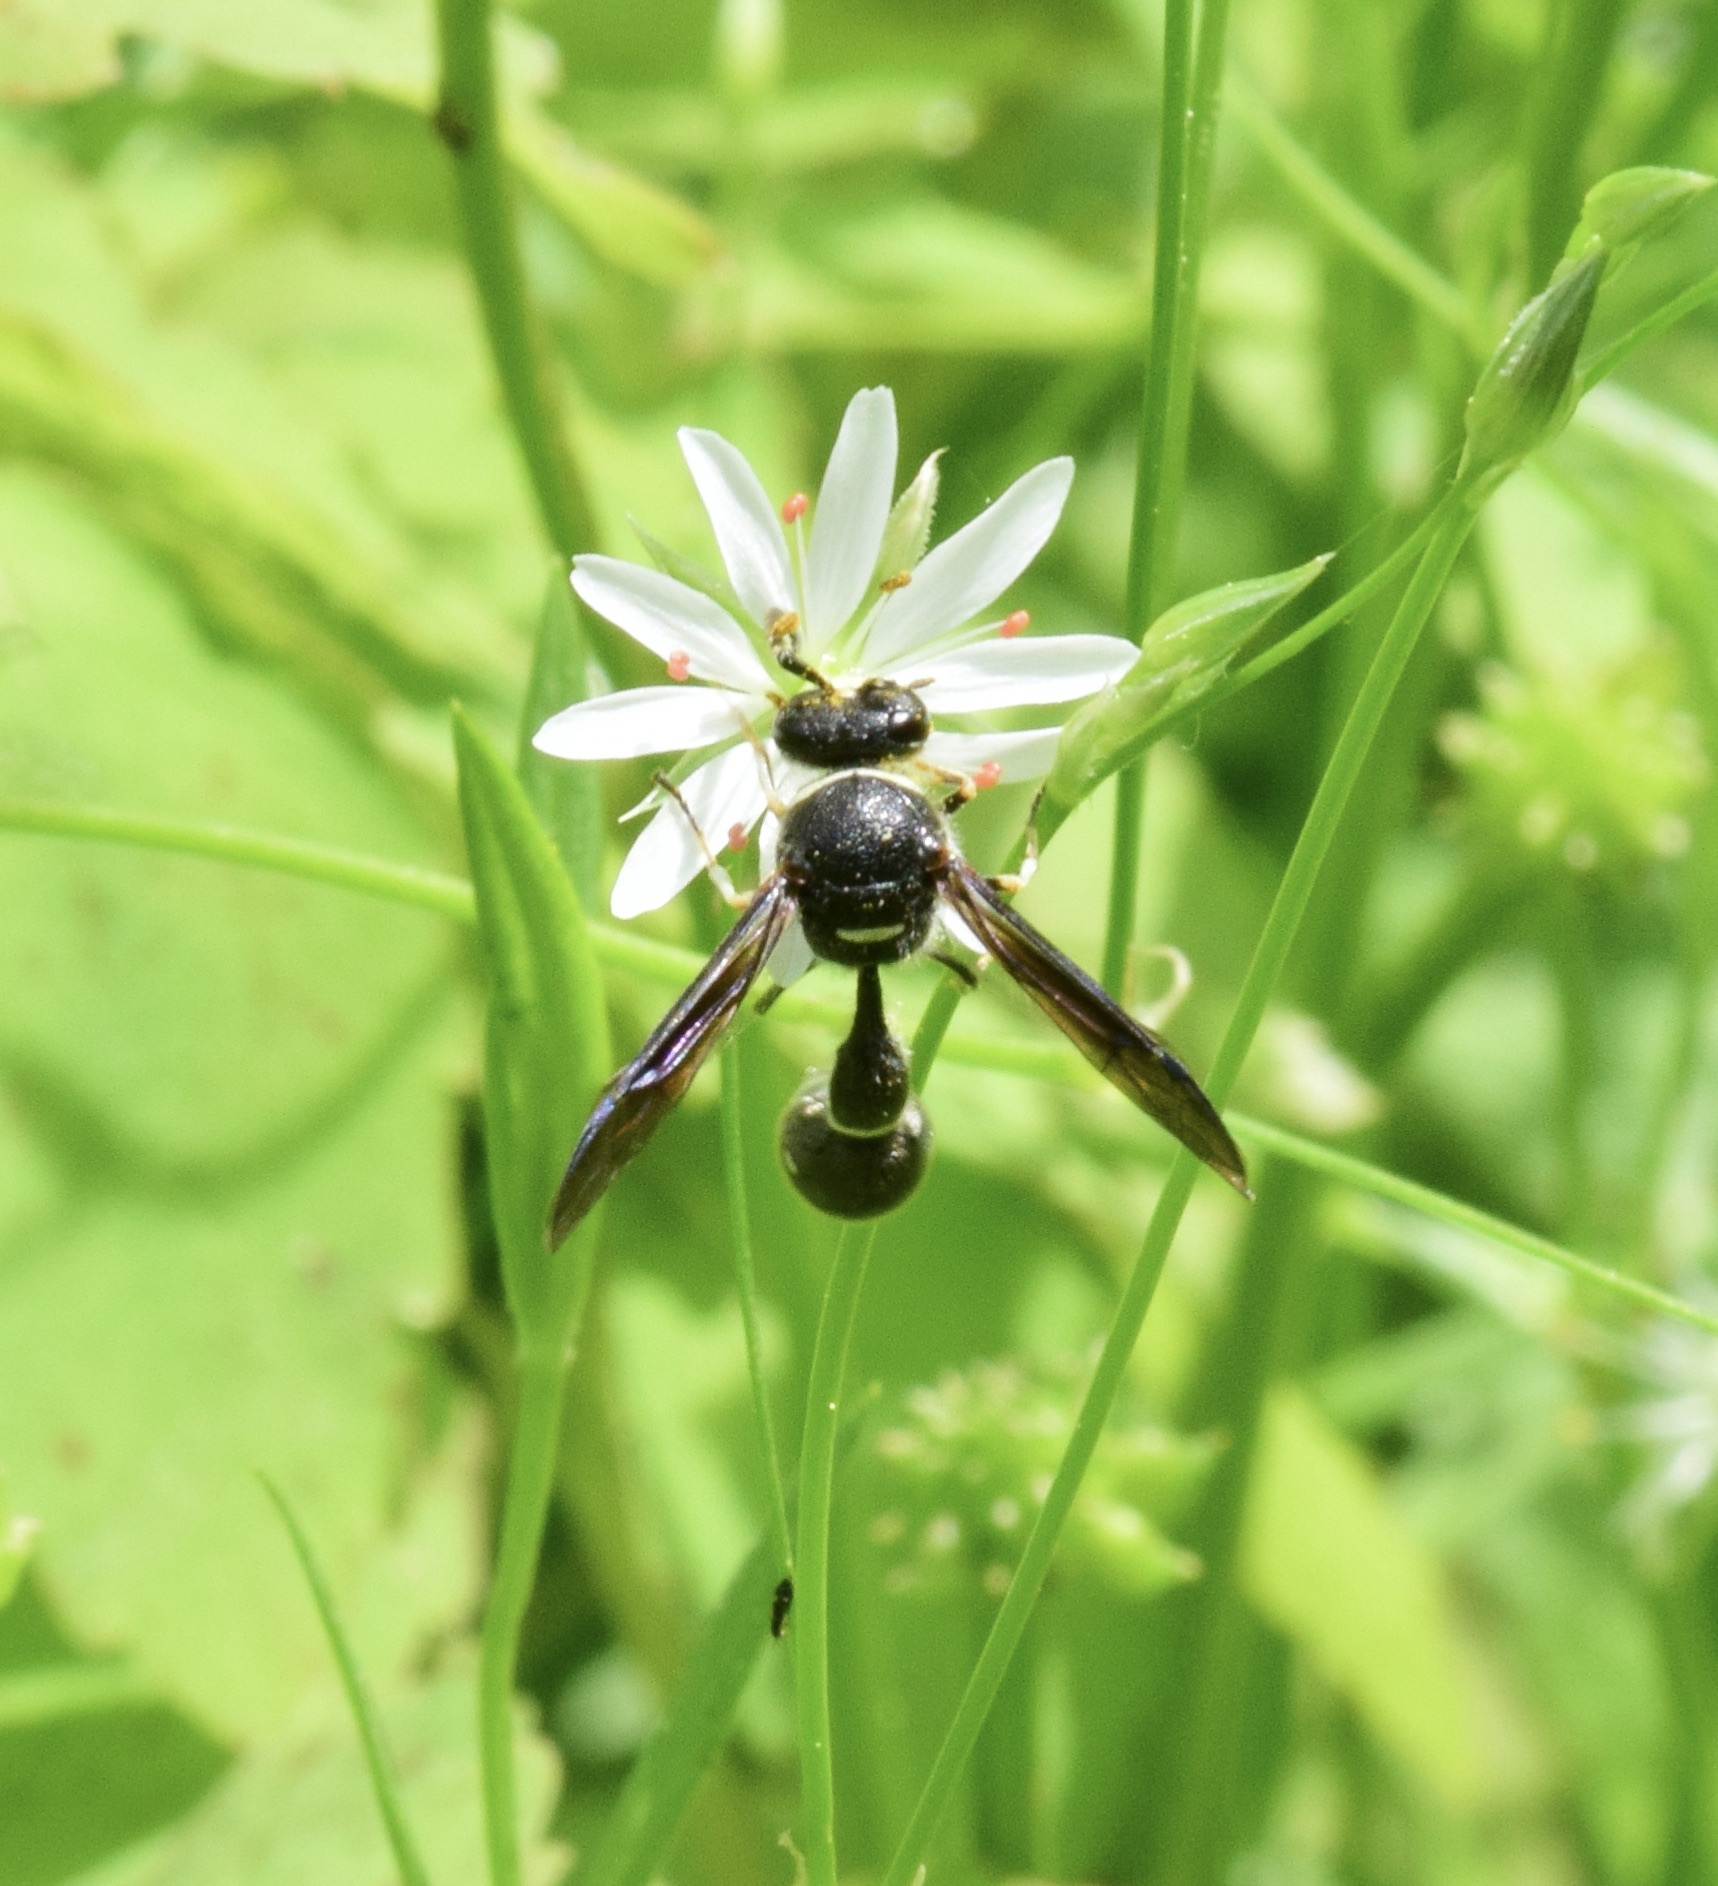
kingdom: Animalia
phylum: Arthropoda
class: Insecta
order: Hymenoptera
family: Vespidae
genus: Eumenes
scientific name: Eumenes fraternus
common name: Fraternal potter wasp
